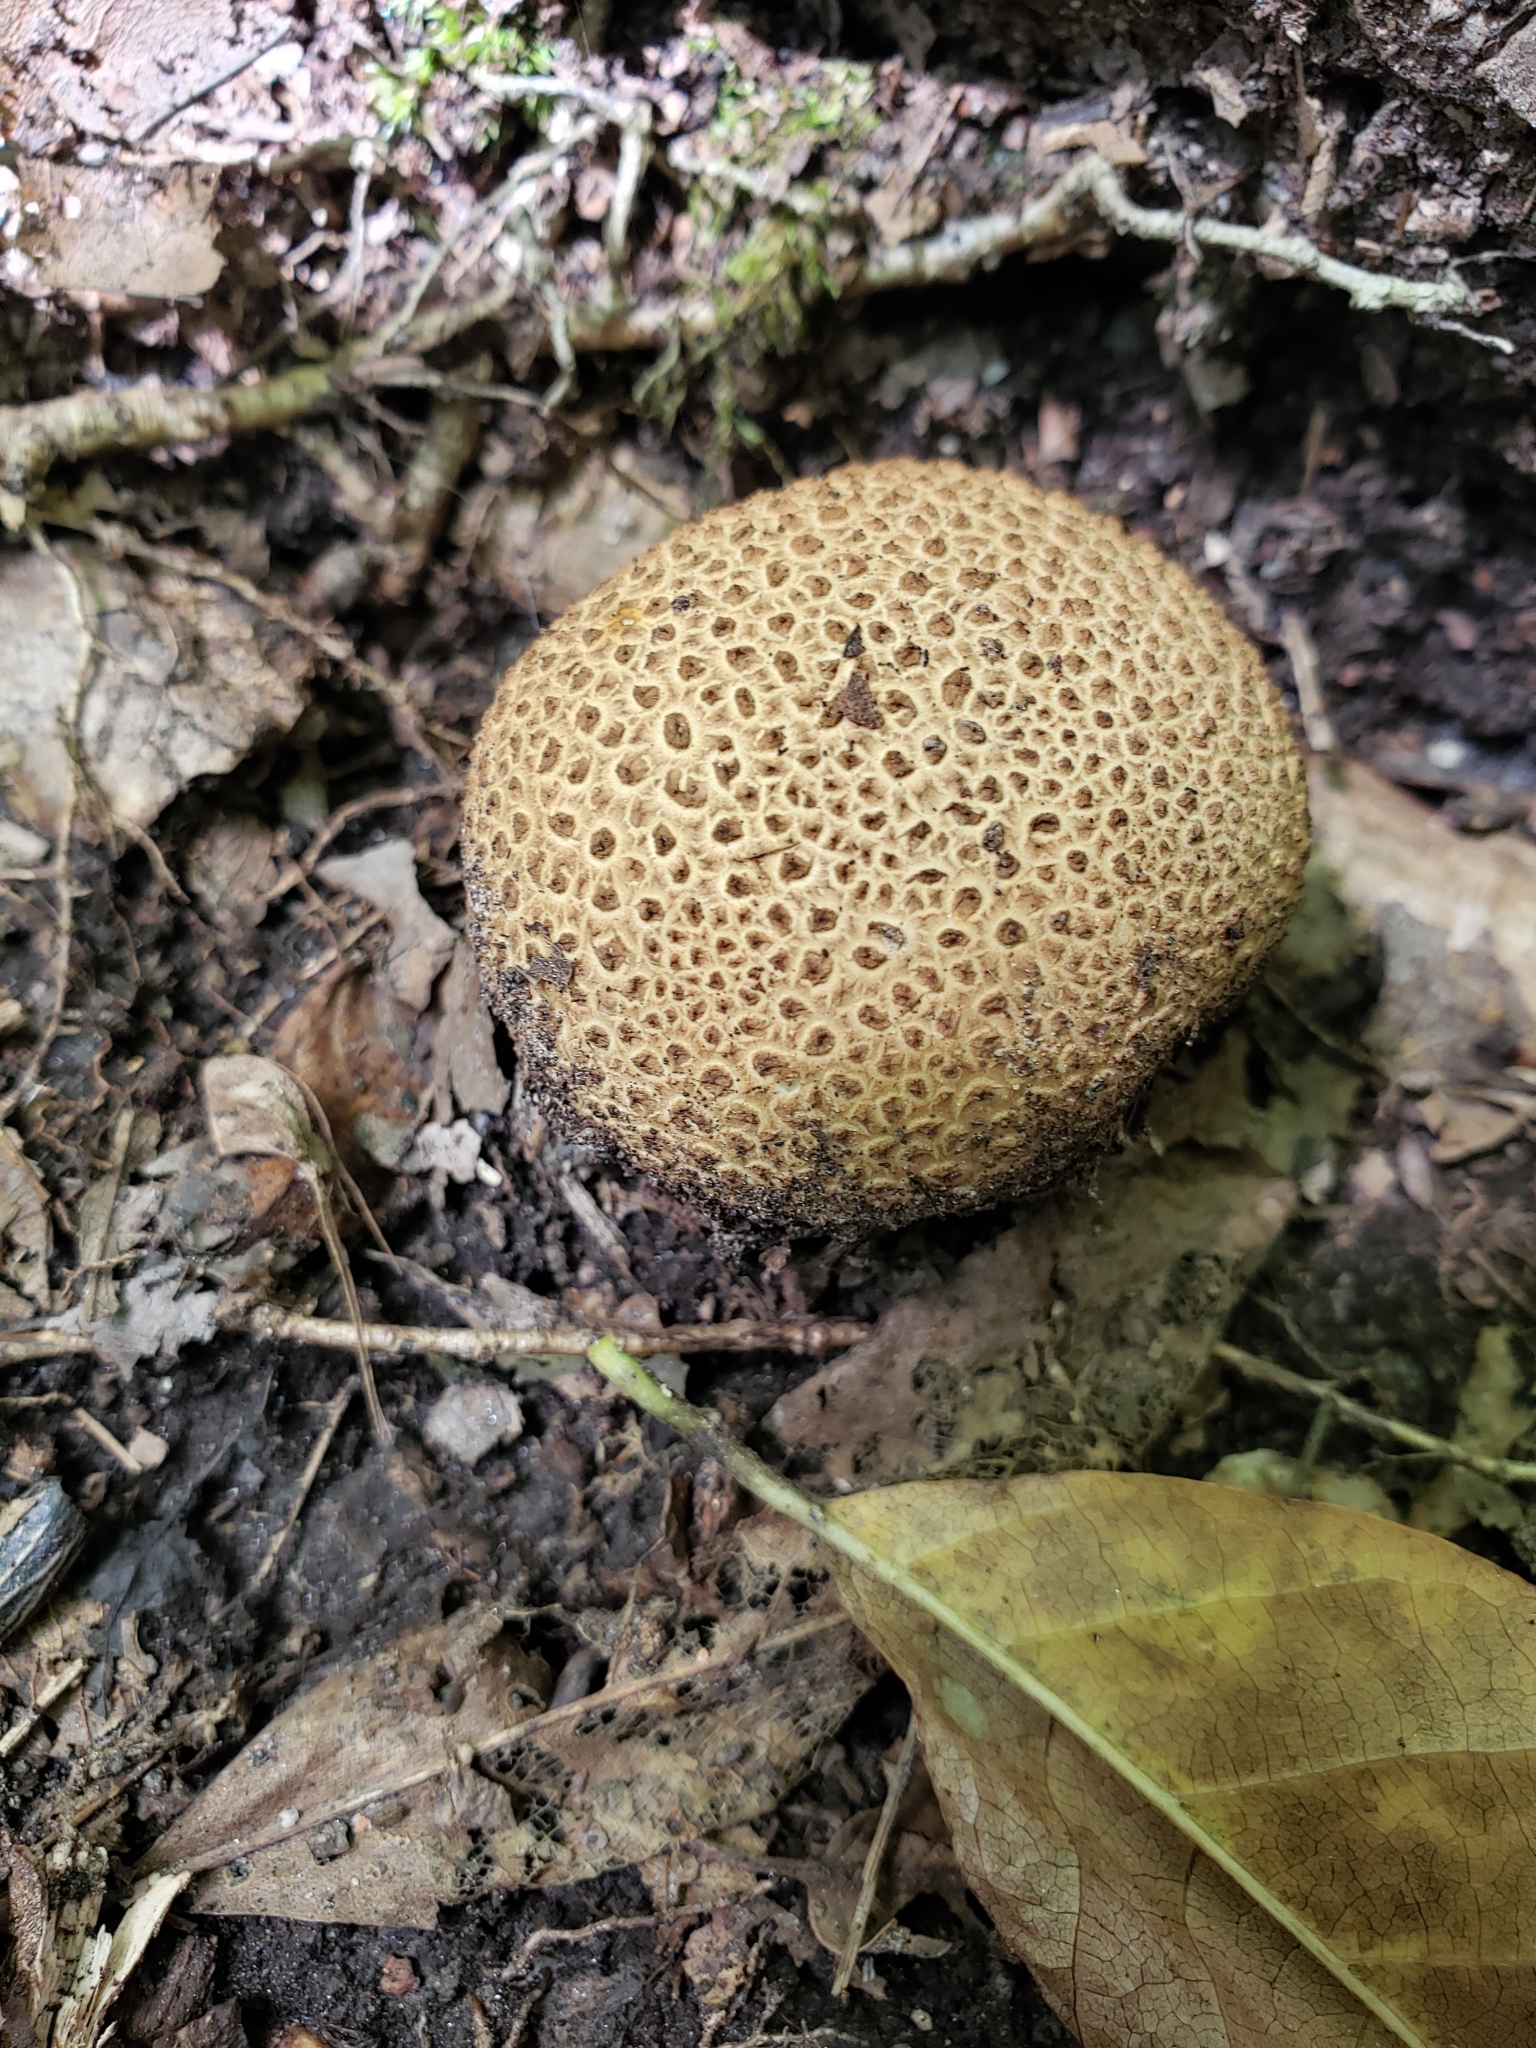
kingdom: Fungi
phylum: Basidiomycota
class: Agaricomycetes
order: Boletales
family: Sclerodermataceae
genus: Scleroderma
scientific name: Scleroderma citrinum
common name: Common earthball
